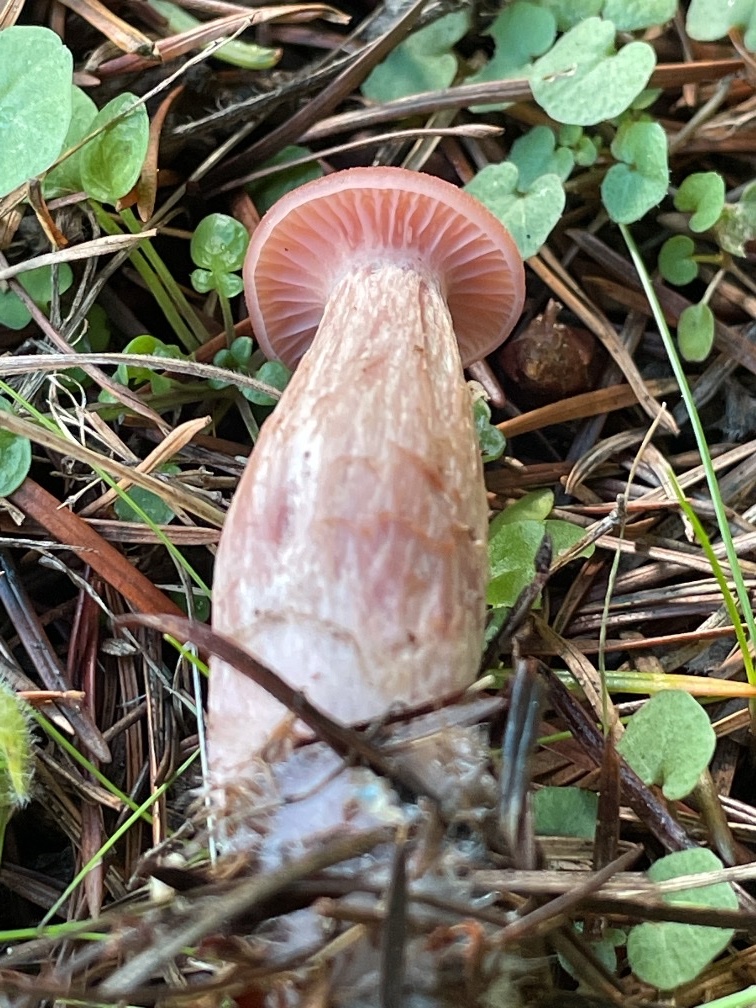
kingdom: Fungi
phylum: Basidiomycota
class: Agaricomycetes
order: Agaricales
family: Hydnangiaceae
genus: Laccaria
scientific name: Laccaria laccata
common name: Deceiver
